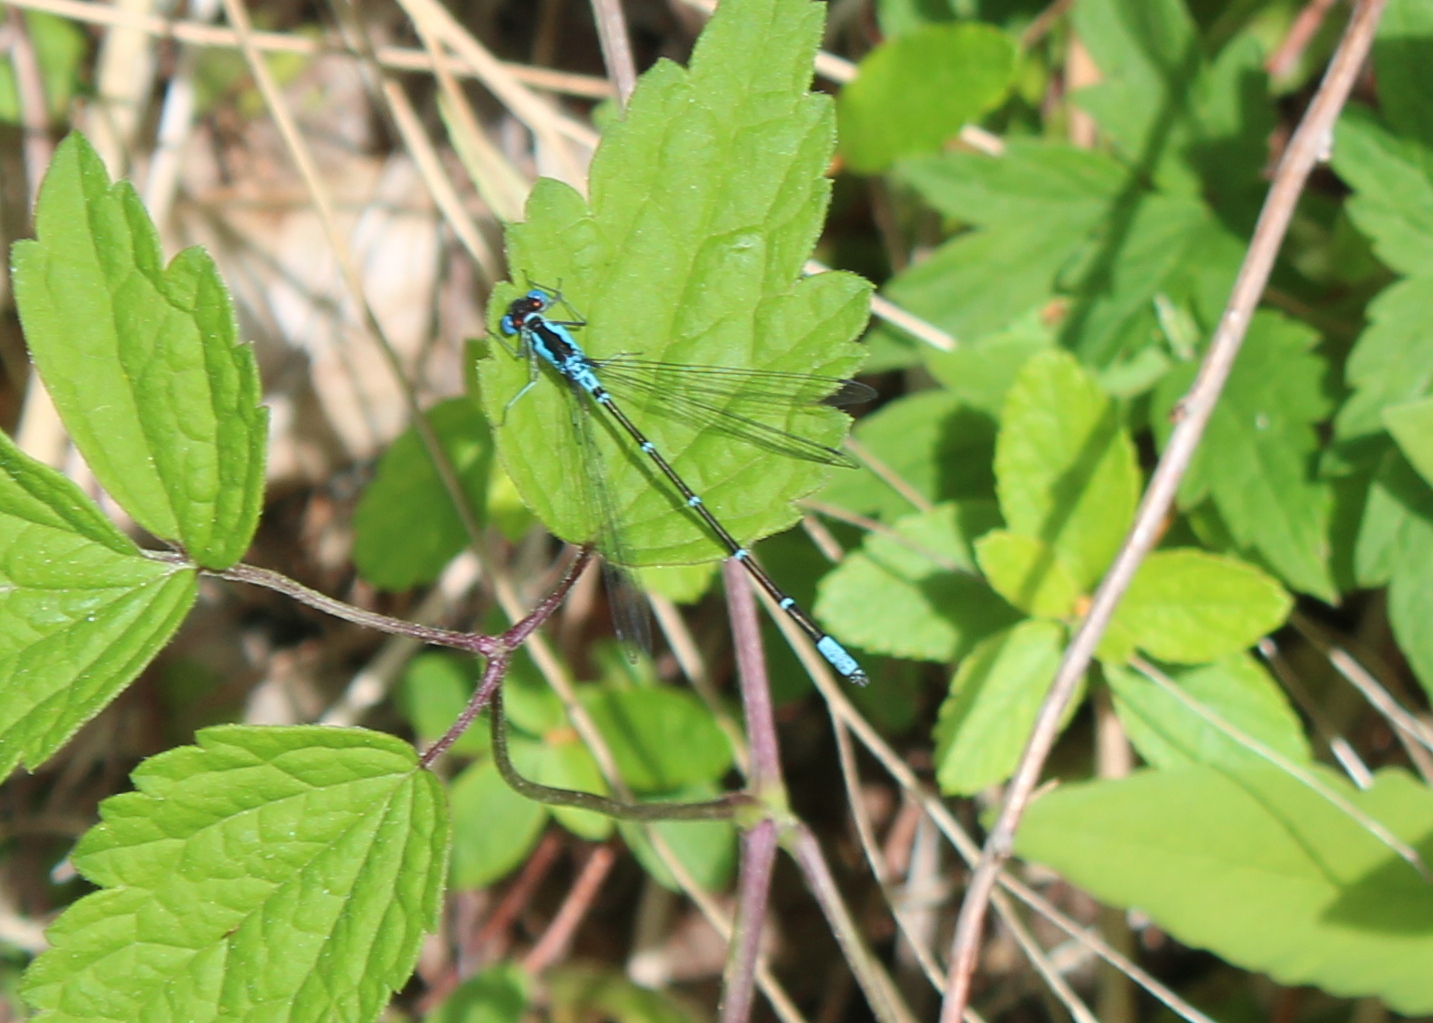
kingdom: Animalia
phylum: Arthropoda
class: Insecta
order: Odonata
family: Coenagrionidae
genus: Chromagrion
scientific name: Chromagrion conditum
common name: Aurora damsel
